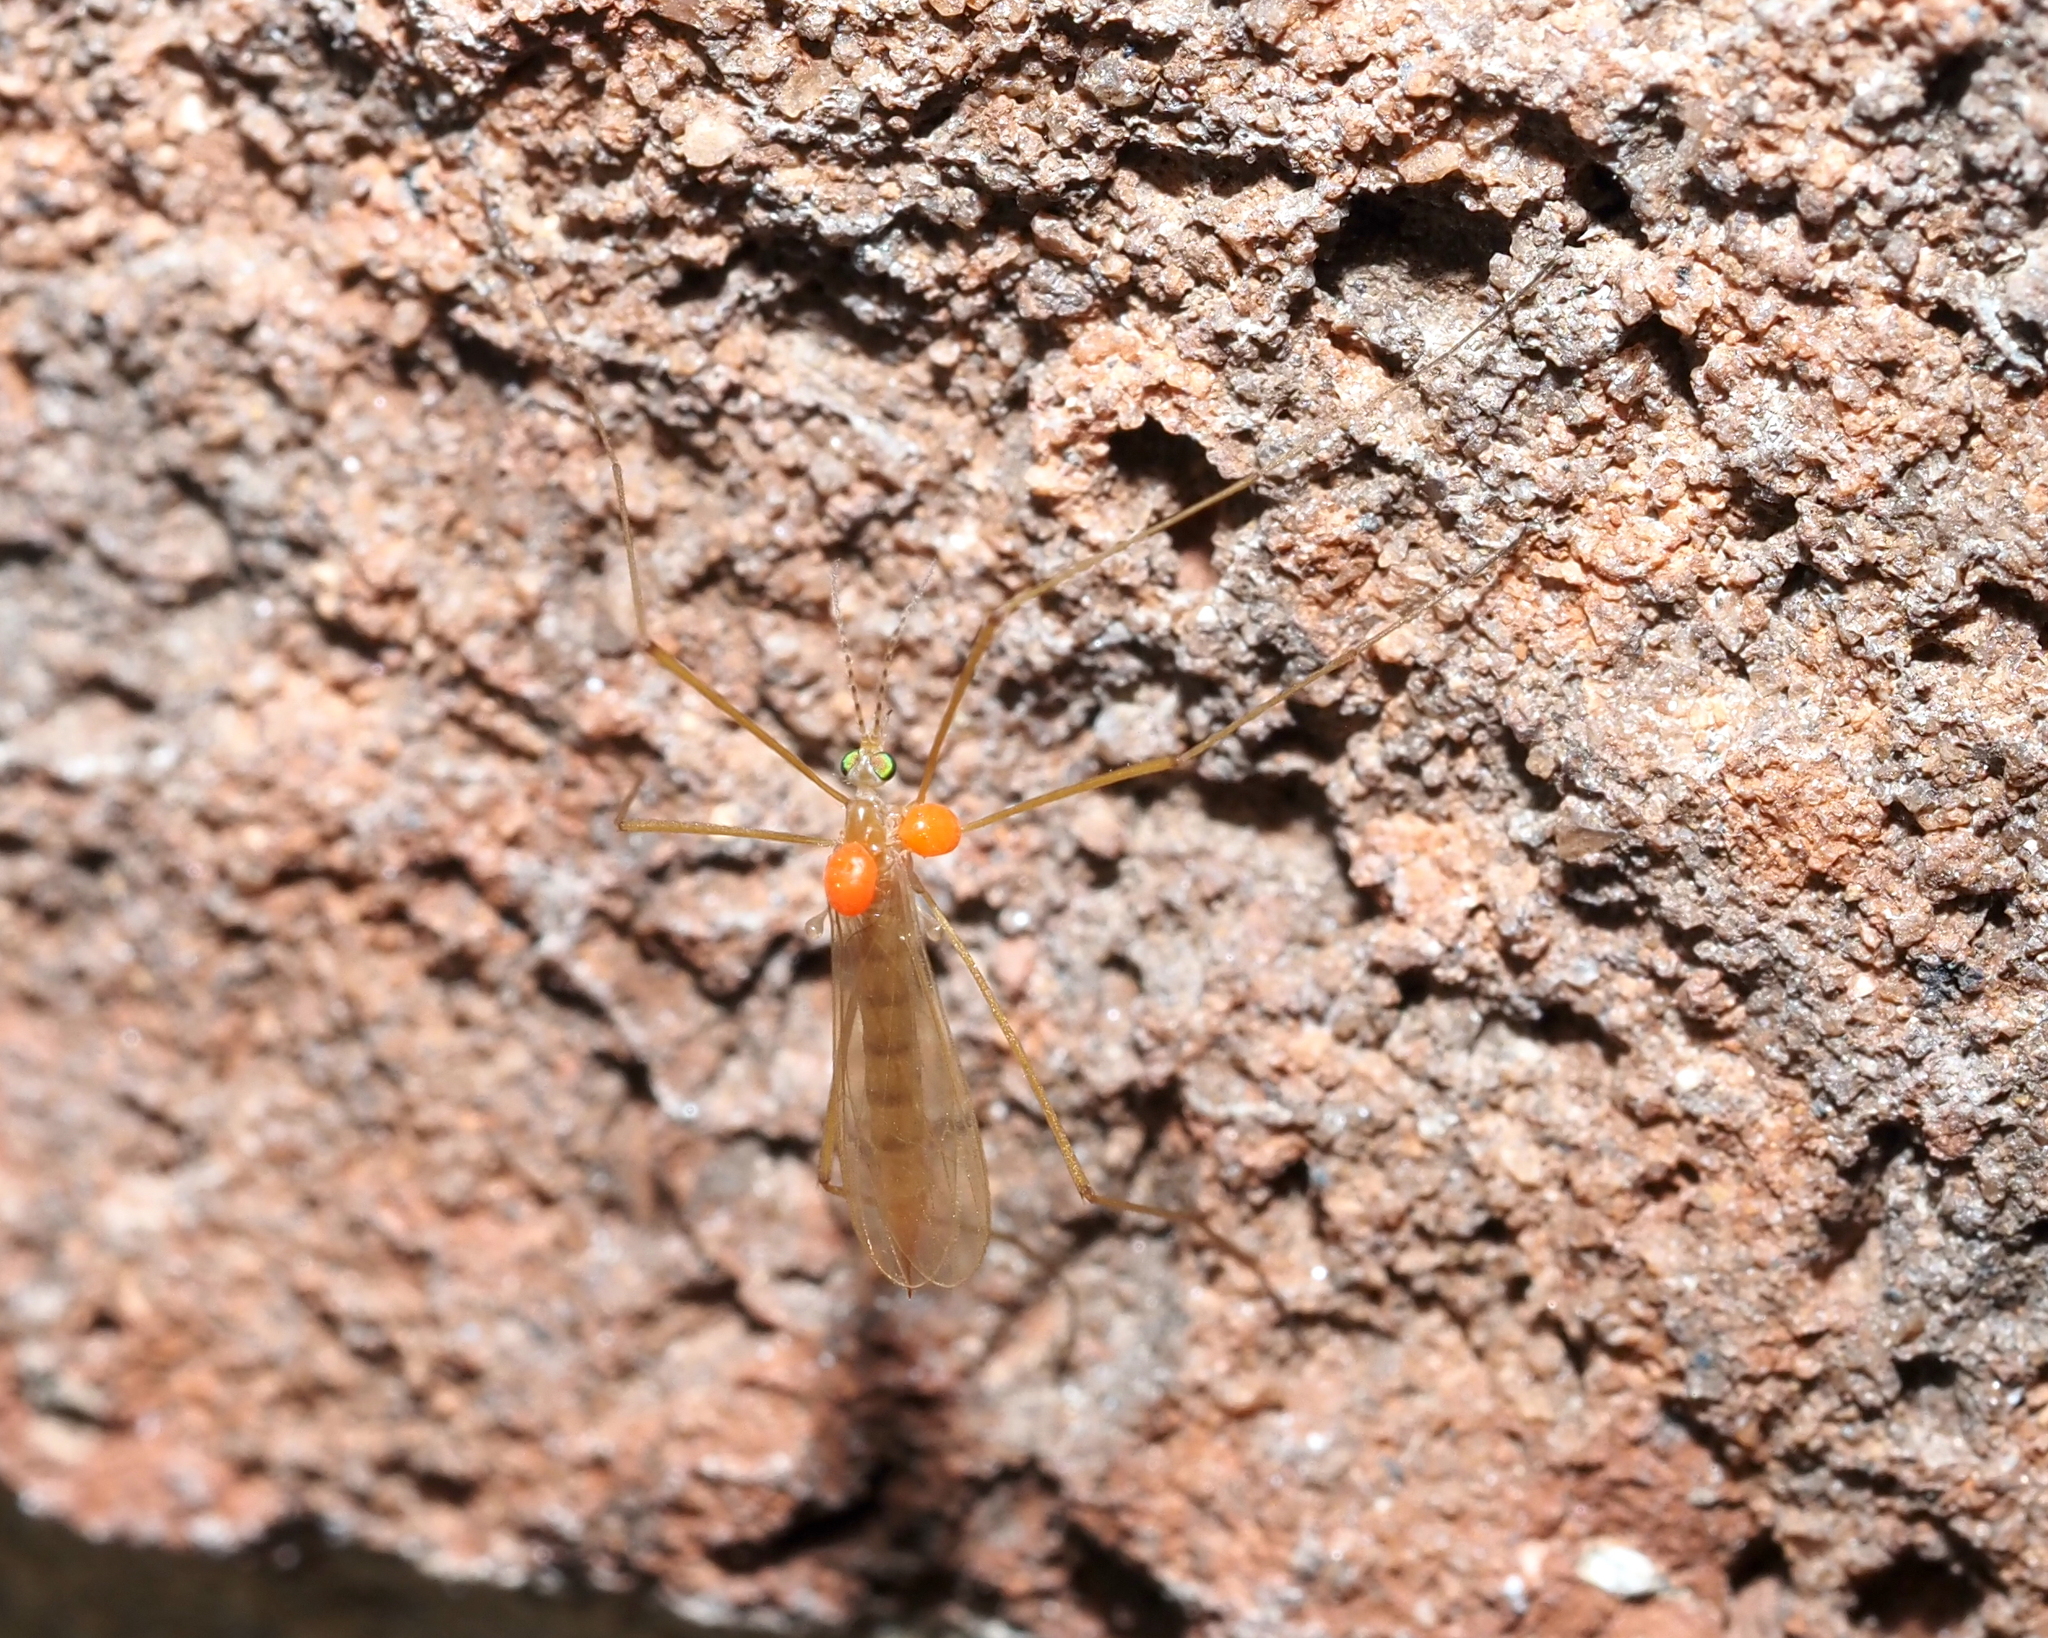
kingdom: Animalia
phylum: Arthropoda
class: Insecta
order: Diptera
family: Limoniidae
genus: Atarba
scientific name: Atarba picticornis
